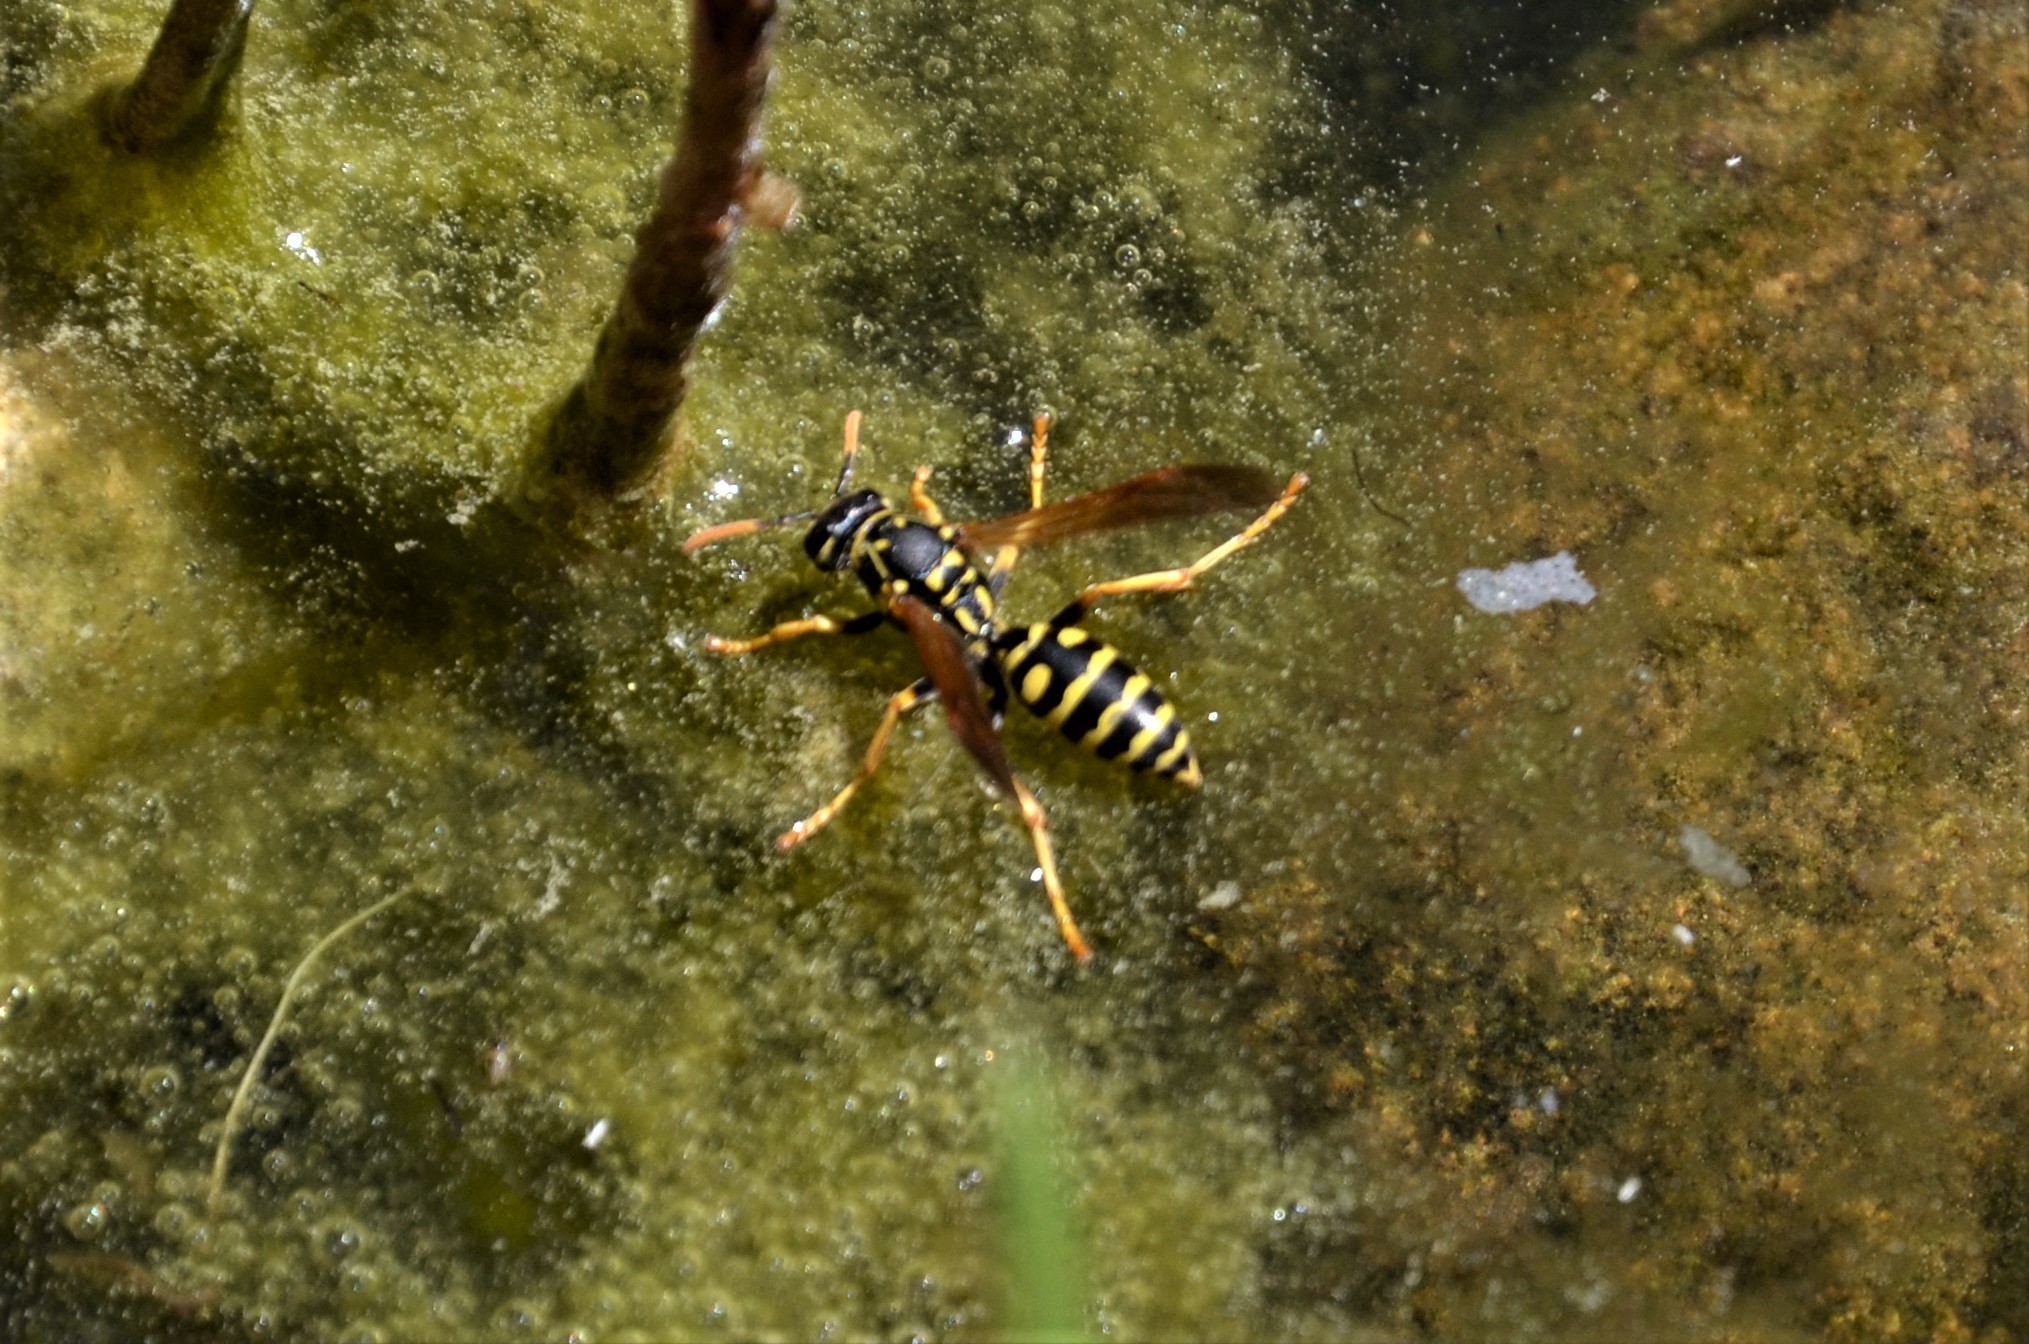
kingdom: Animalia
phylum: Arthropoda
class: Insecta
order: Hymenoptera
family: Eumenidae
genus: Polistes
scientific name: Polistes dominula
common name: Paper wasp
